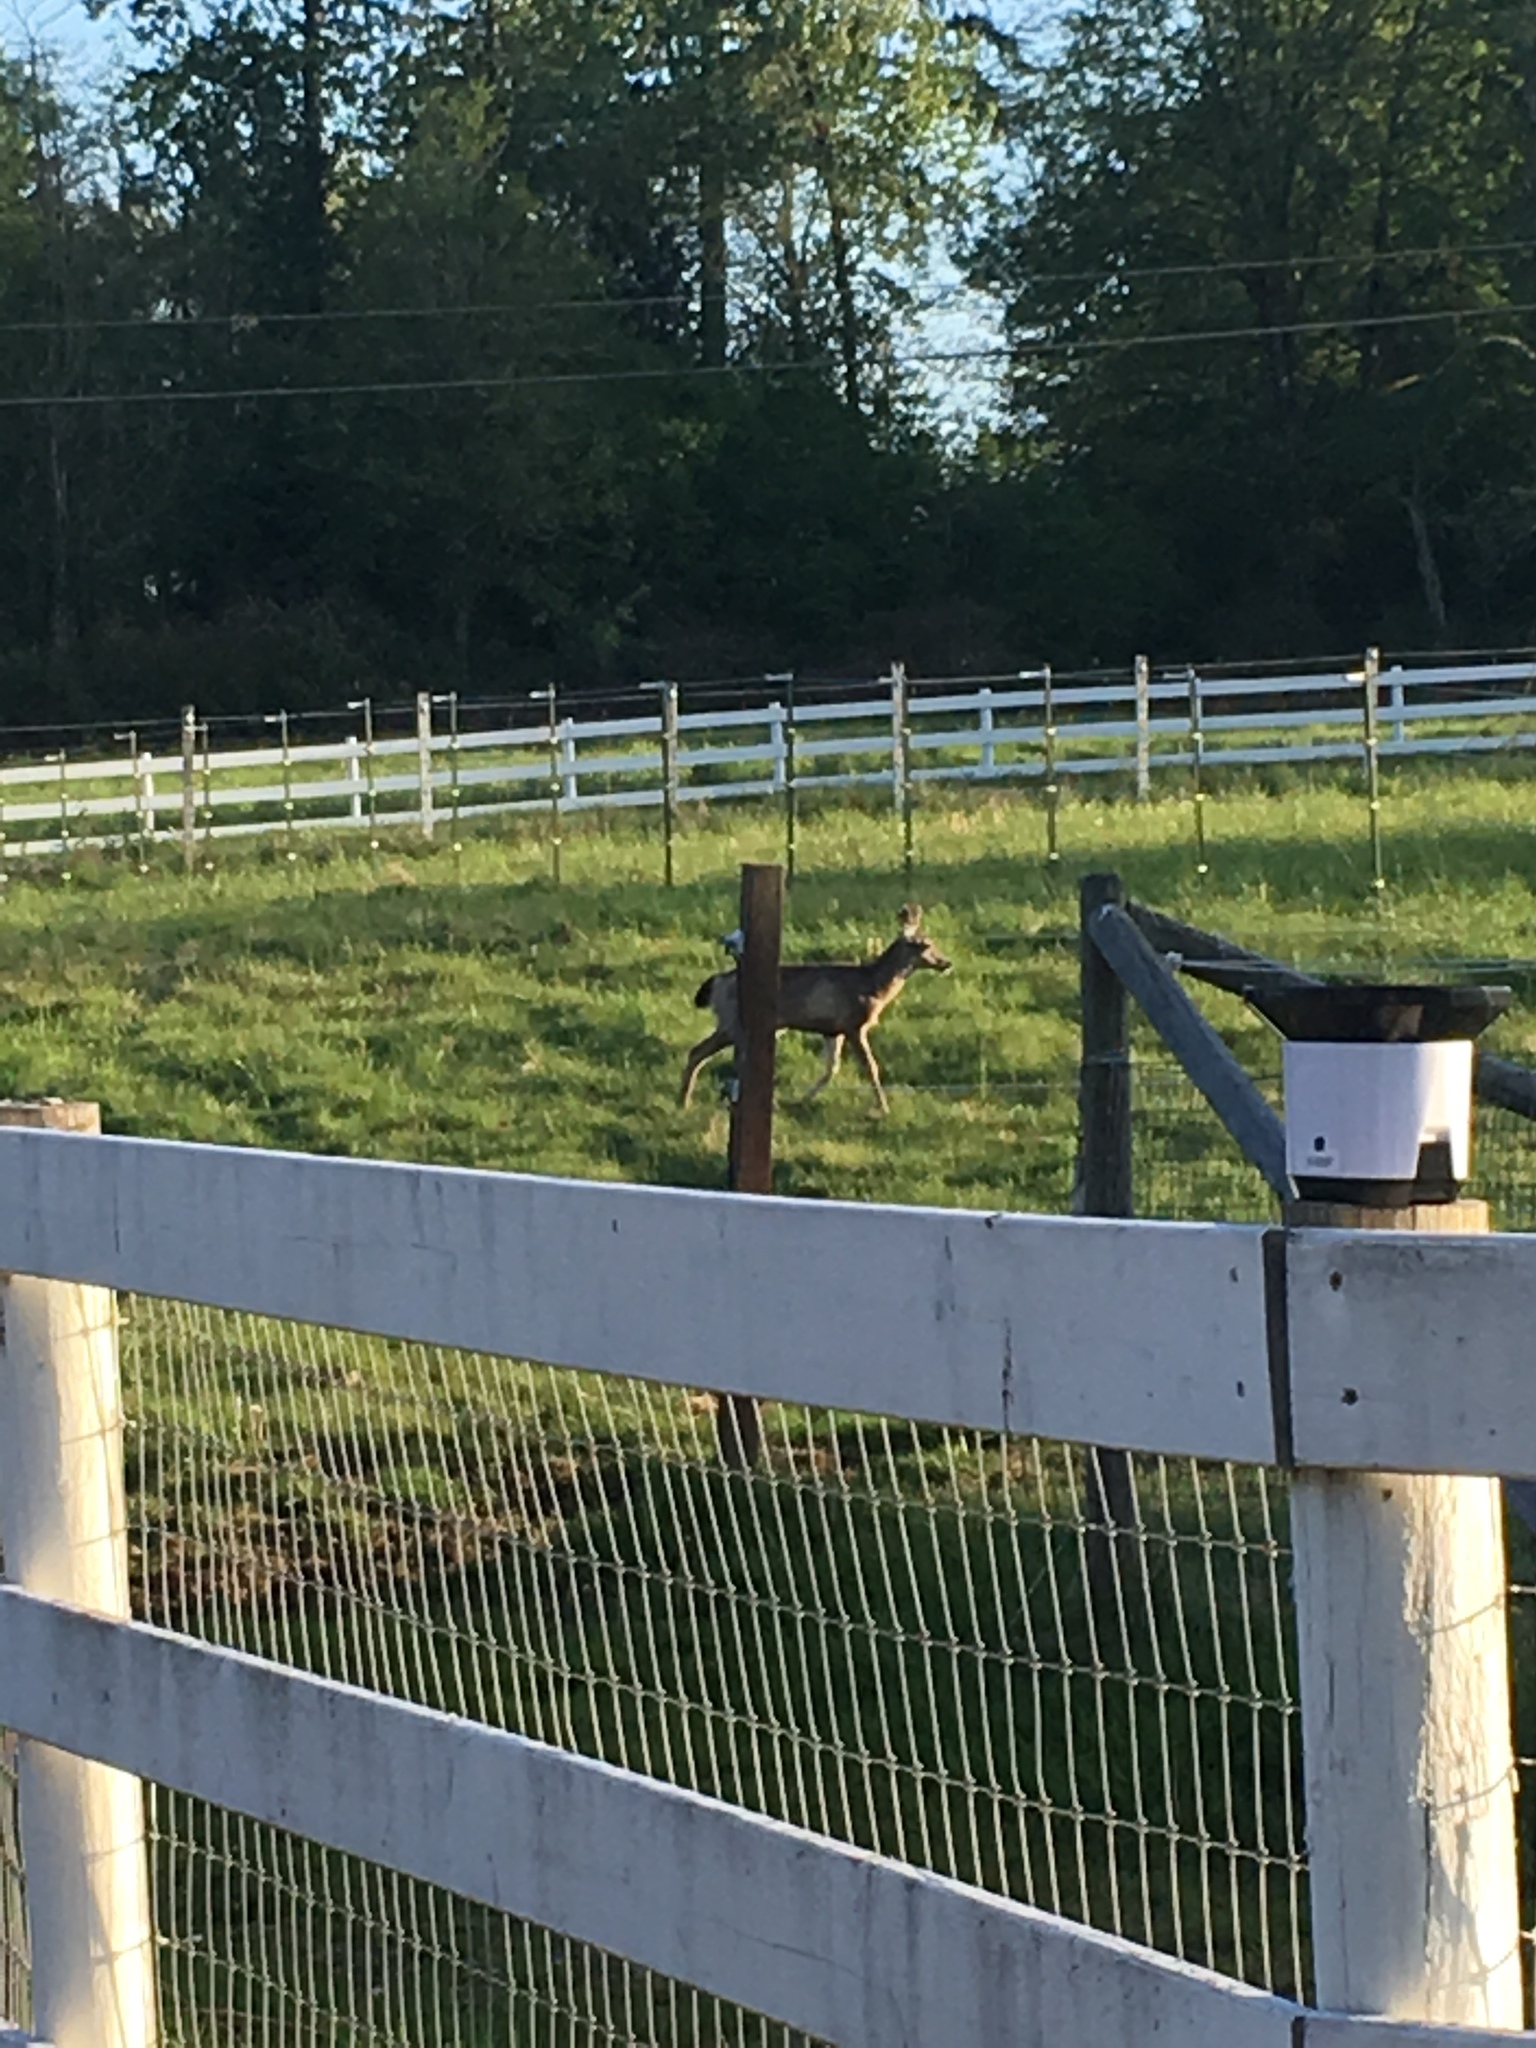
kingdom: Animalia
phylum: Chordata
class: Mammalia
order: Artiodactyla
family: Cervidae
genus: Odocoileus
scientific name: Odocoileus hemionus
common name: Mule deer
